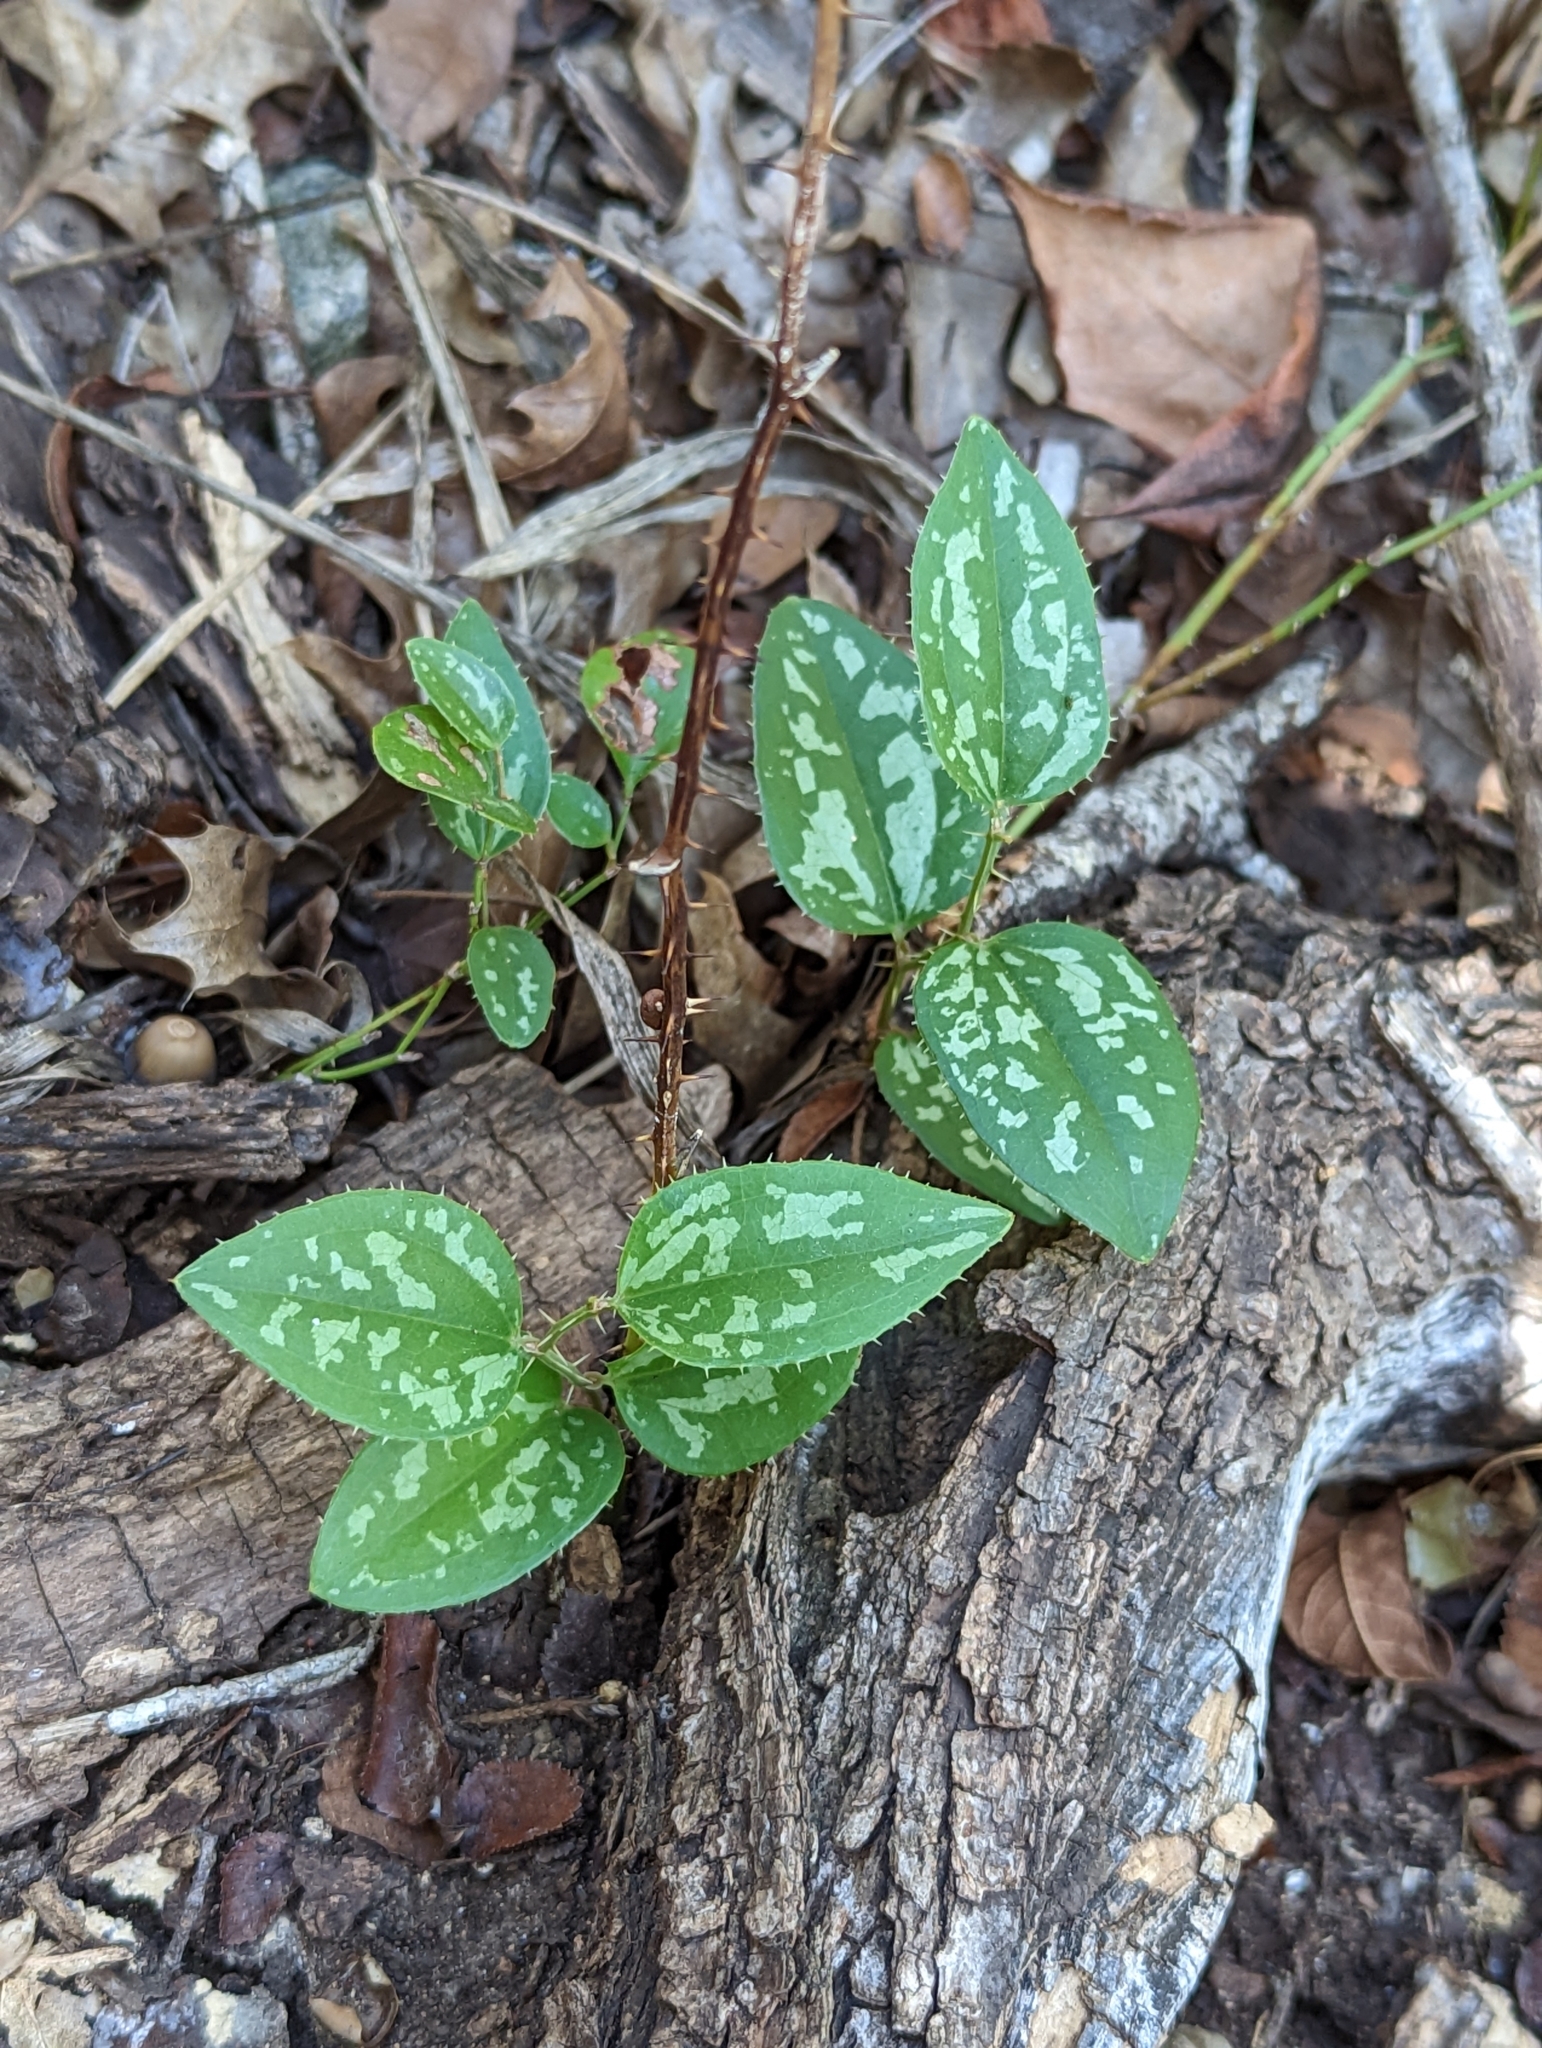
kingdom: Plantae
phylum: Tracheophyta
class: Liliopsida
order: Liliales
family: Smilacaceae
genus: Smilax
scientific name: Smilax bona-nox
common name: Catbrier
